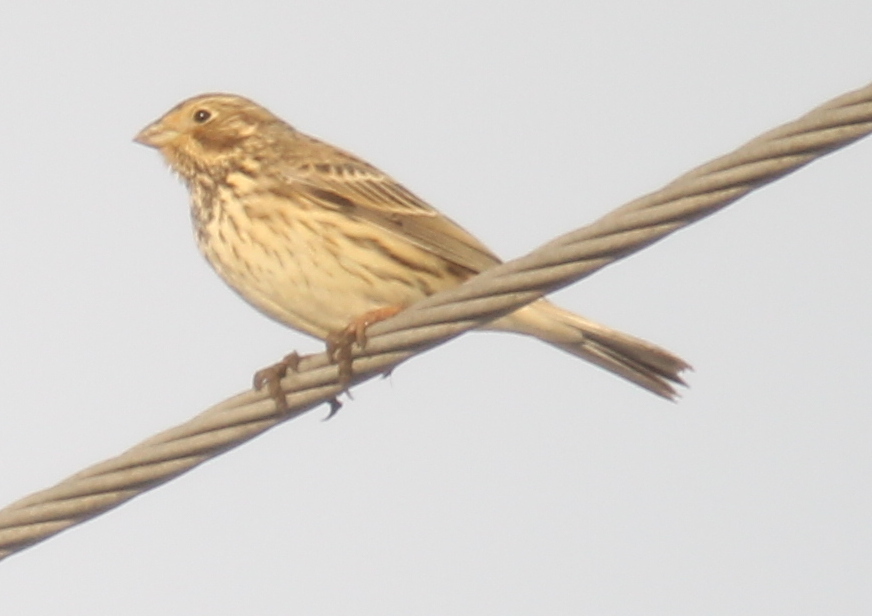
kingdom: Animalia
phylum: Chordata
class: Aves
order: Passeriformes
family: Emberizidae
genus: Emberiza
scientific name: Emberiza calandra
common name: Corn bunting
